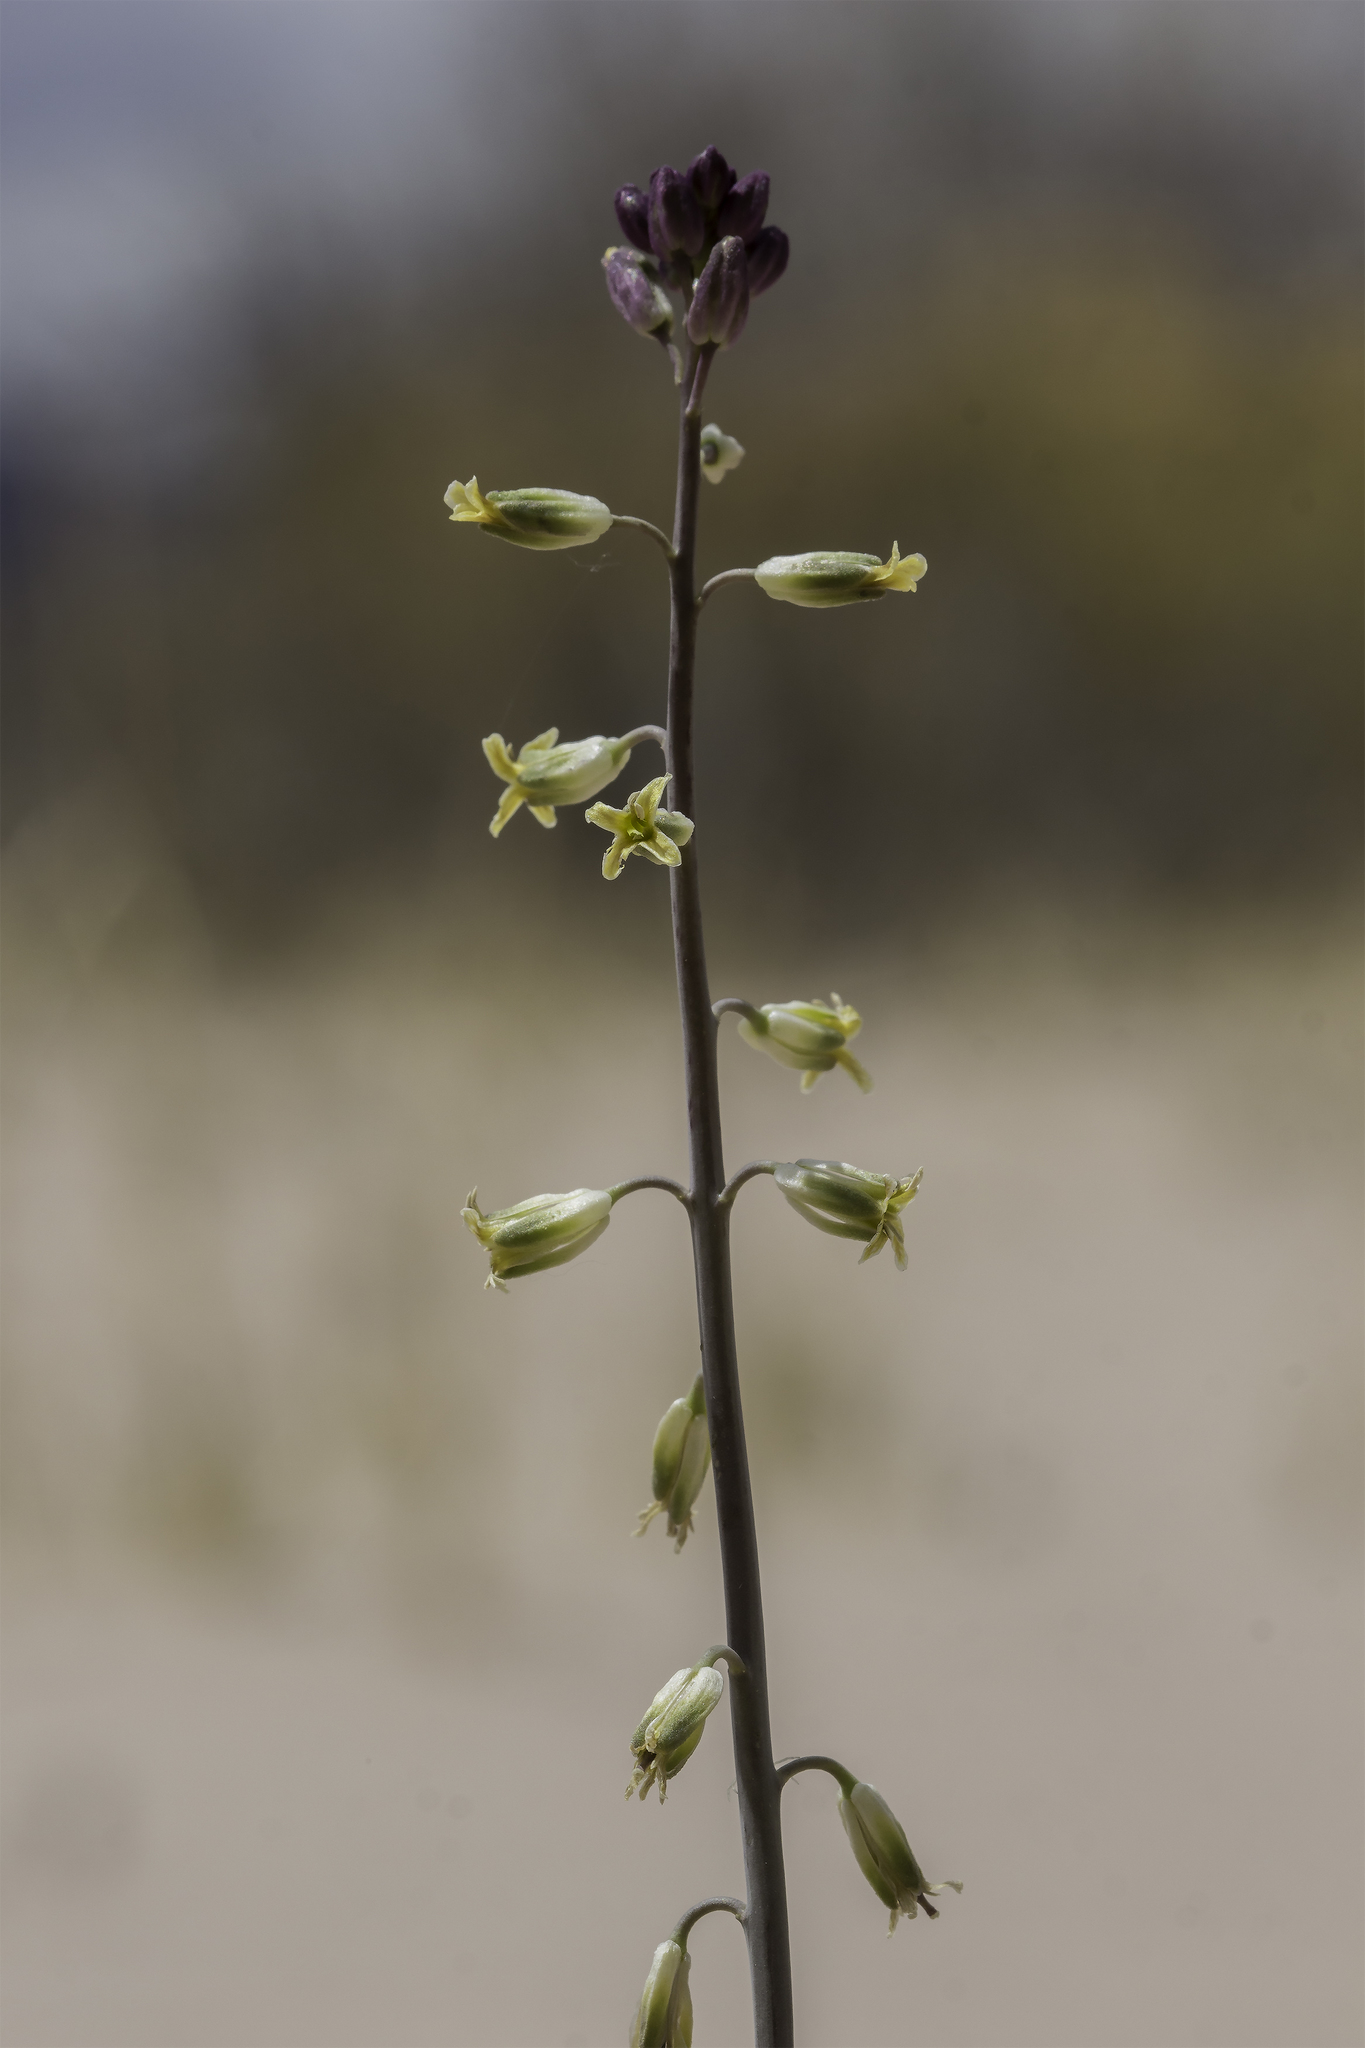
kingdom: Plantae
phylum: Tracheophyta
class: Magnoliopsida
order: Brassicales
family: Brassicaceae
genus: Streptanthus
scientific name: Streptanthus longirostris
